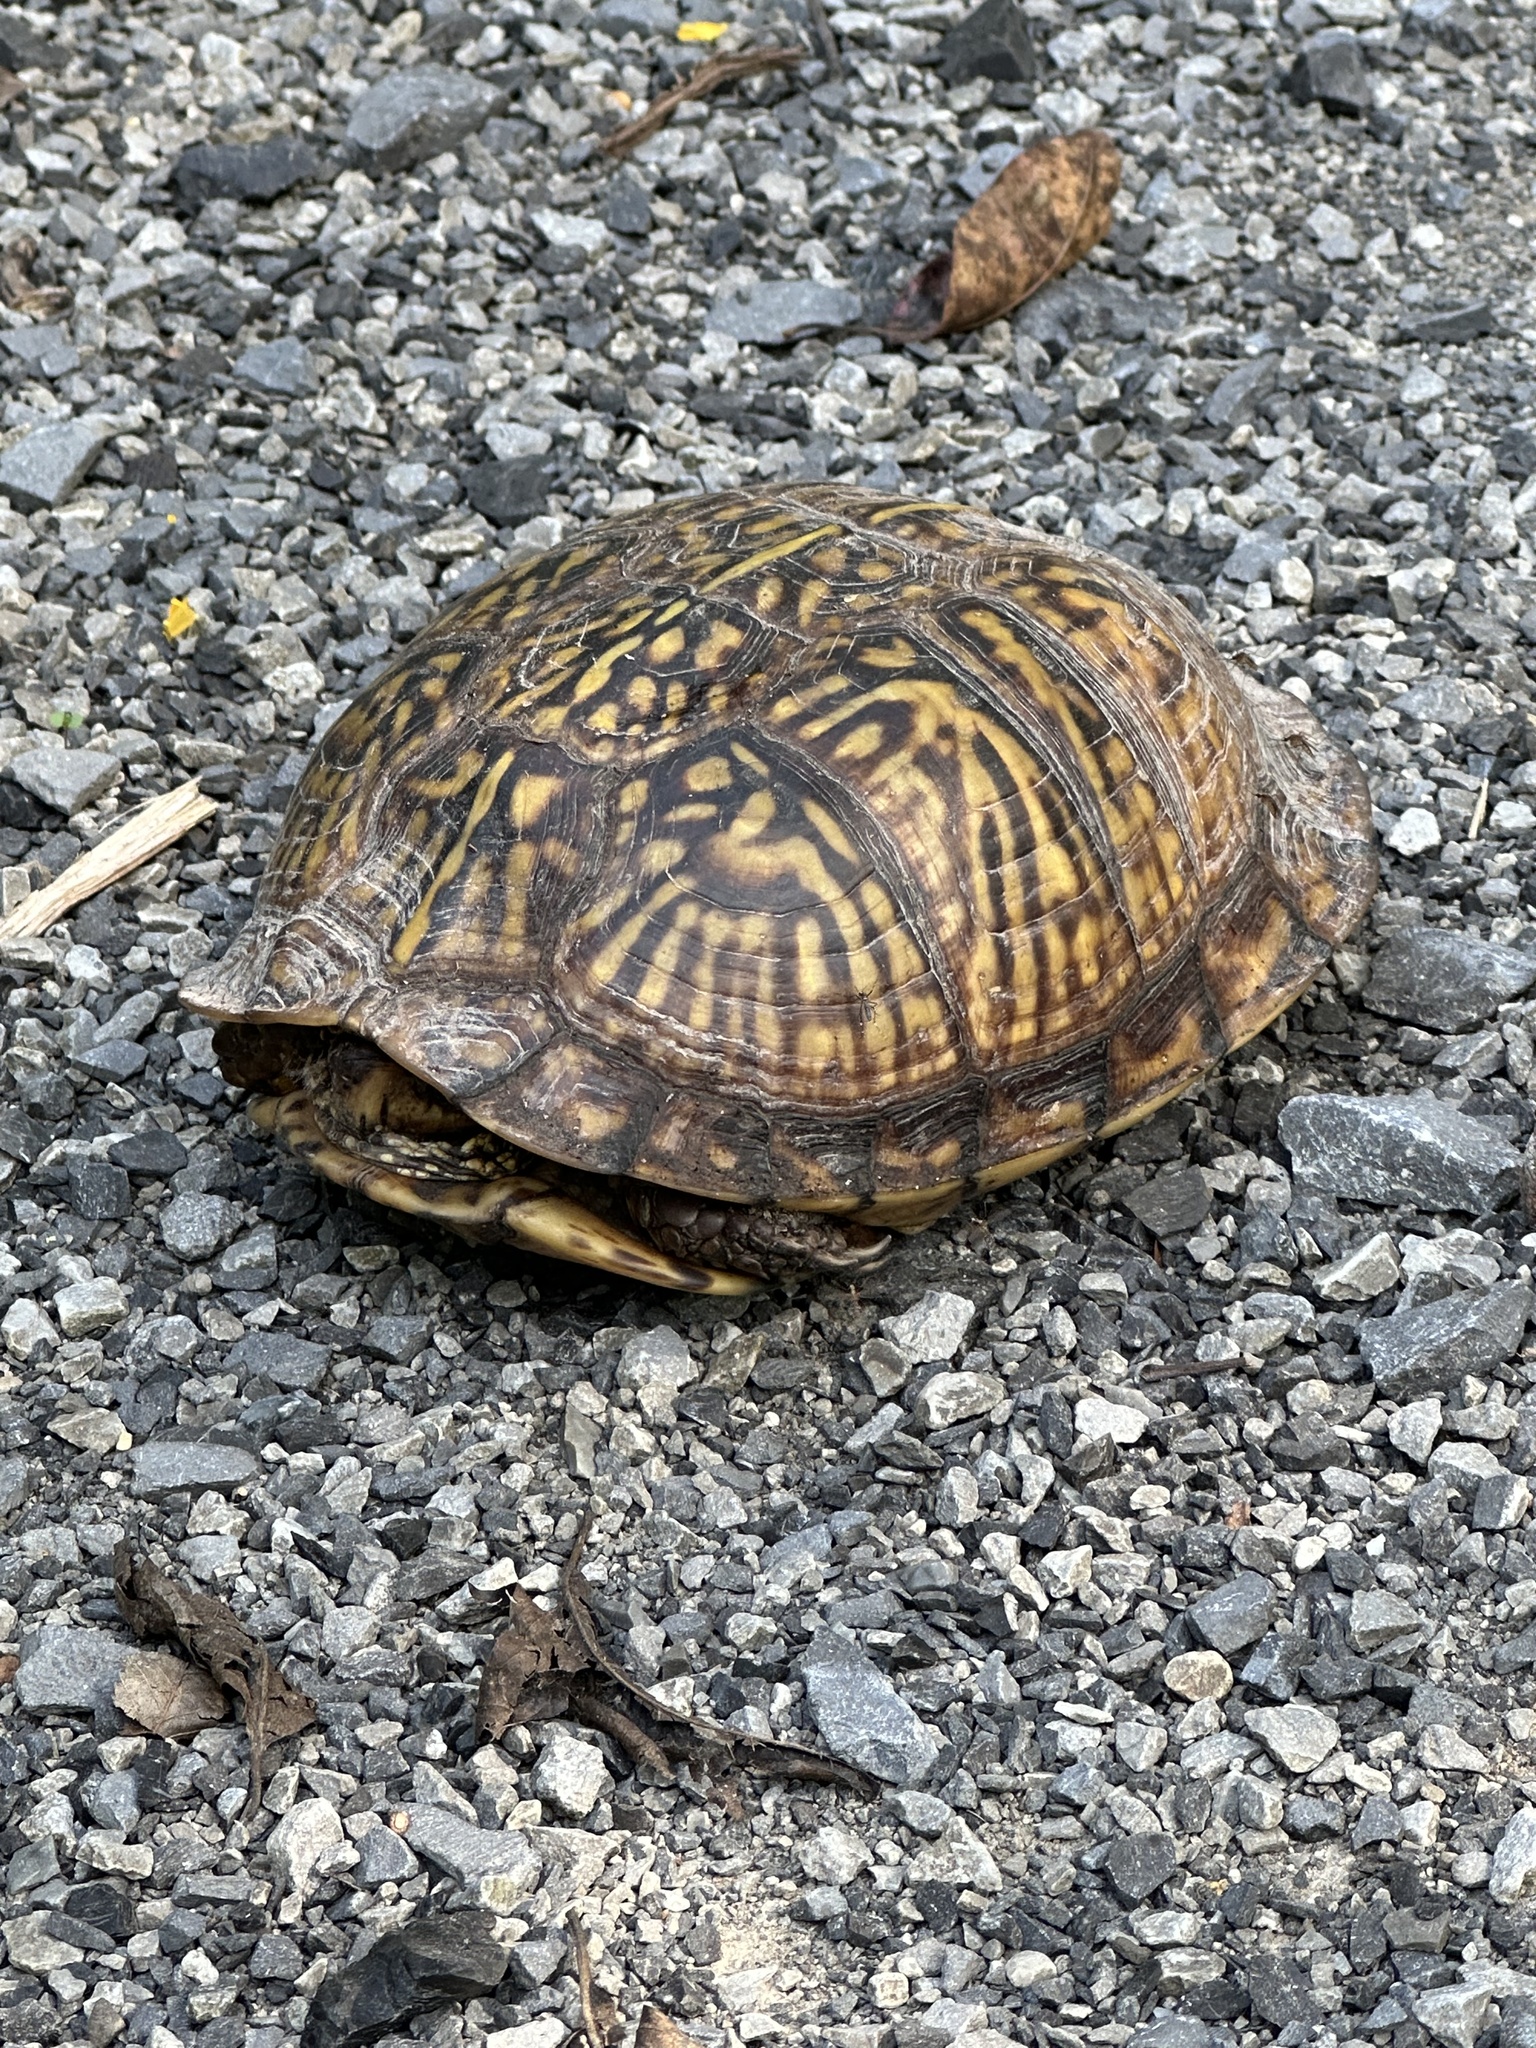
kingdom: Animalia
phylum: Chordata
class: Testudines
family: Emydidae
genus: Terrapene
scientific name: Terrapene carolina
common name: Common box turtle
